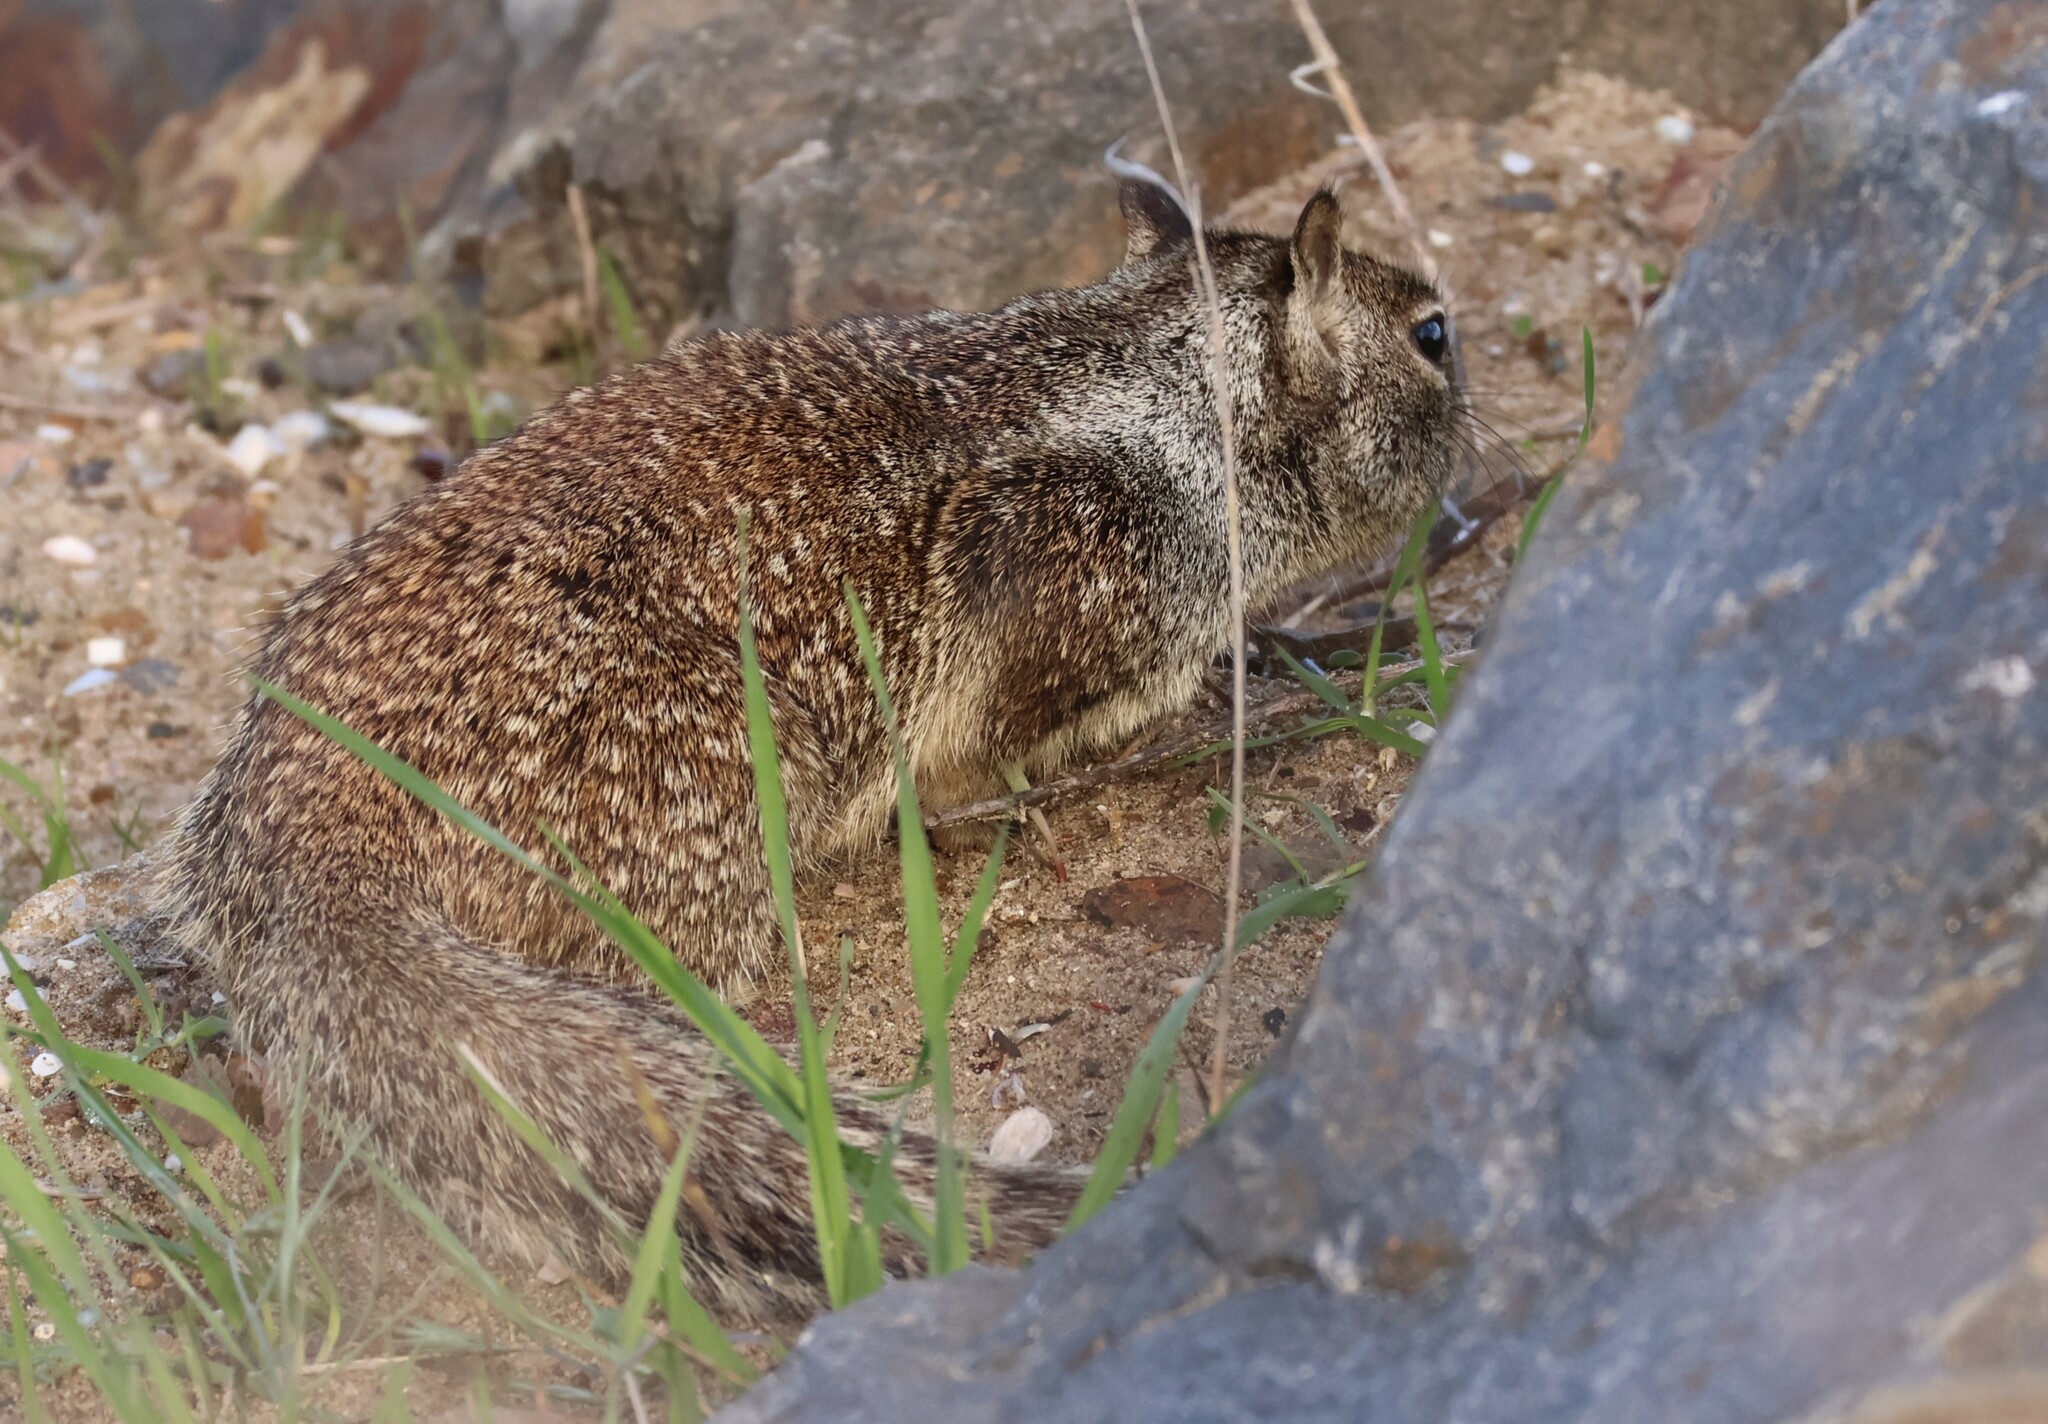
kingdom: Animalia
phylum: Chordata
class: Mammalia
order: Rodentia
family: Sciuridae
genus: Otospermophilus
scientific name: Otospermophilus beecheyi
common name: California ground squirrel
